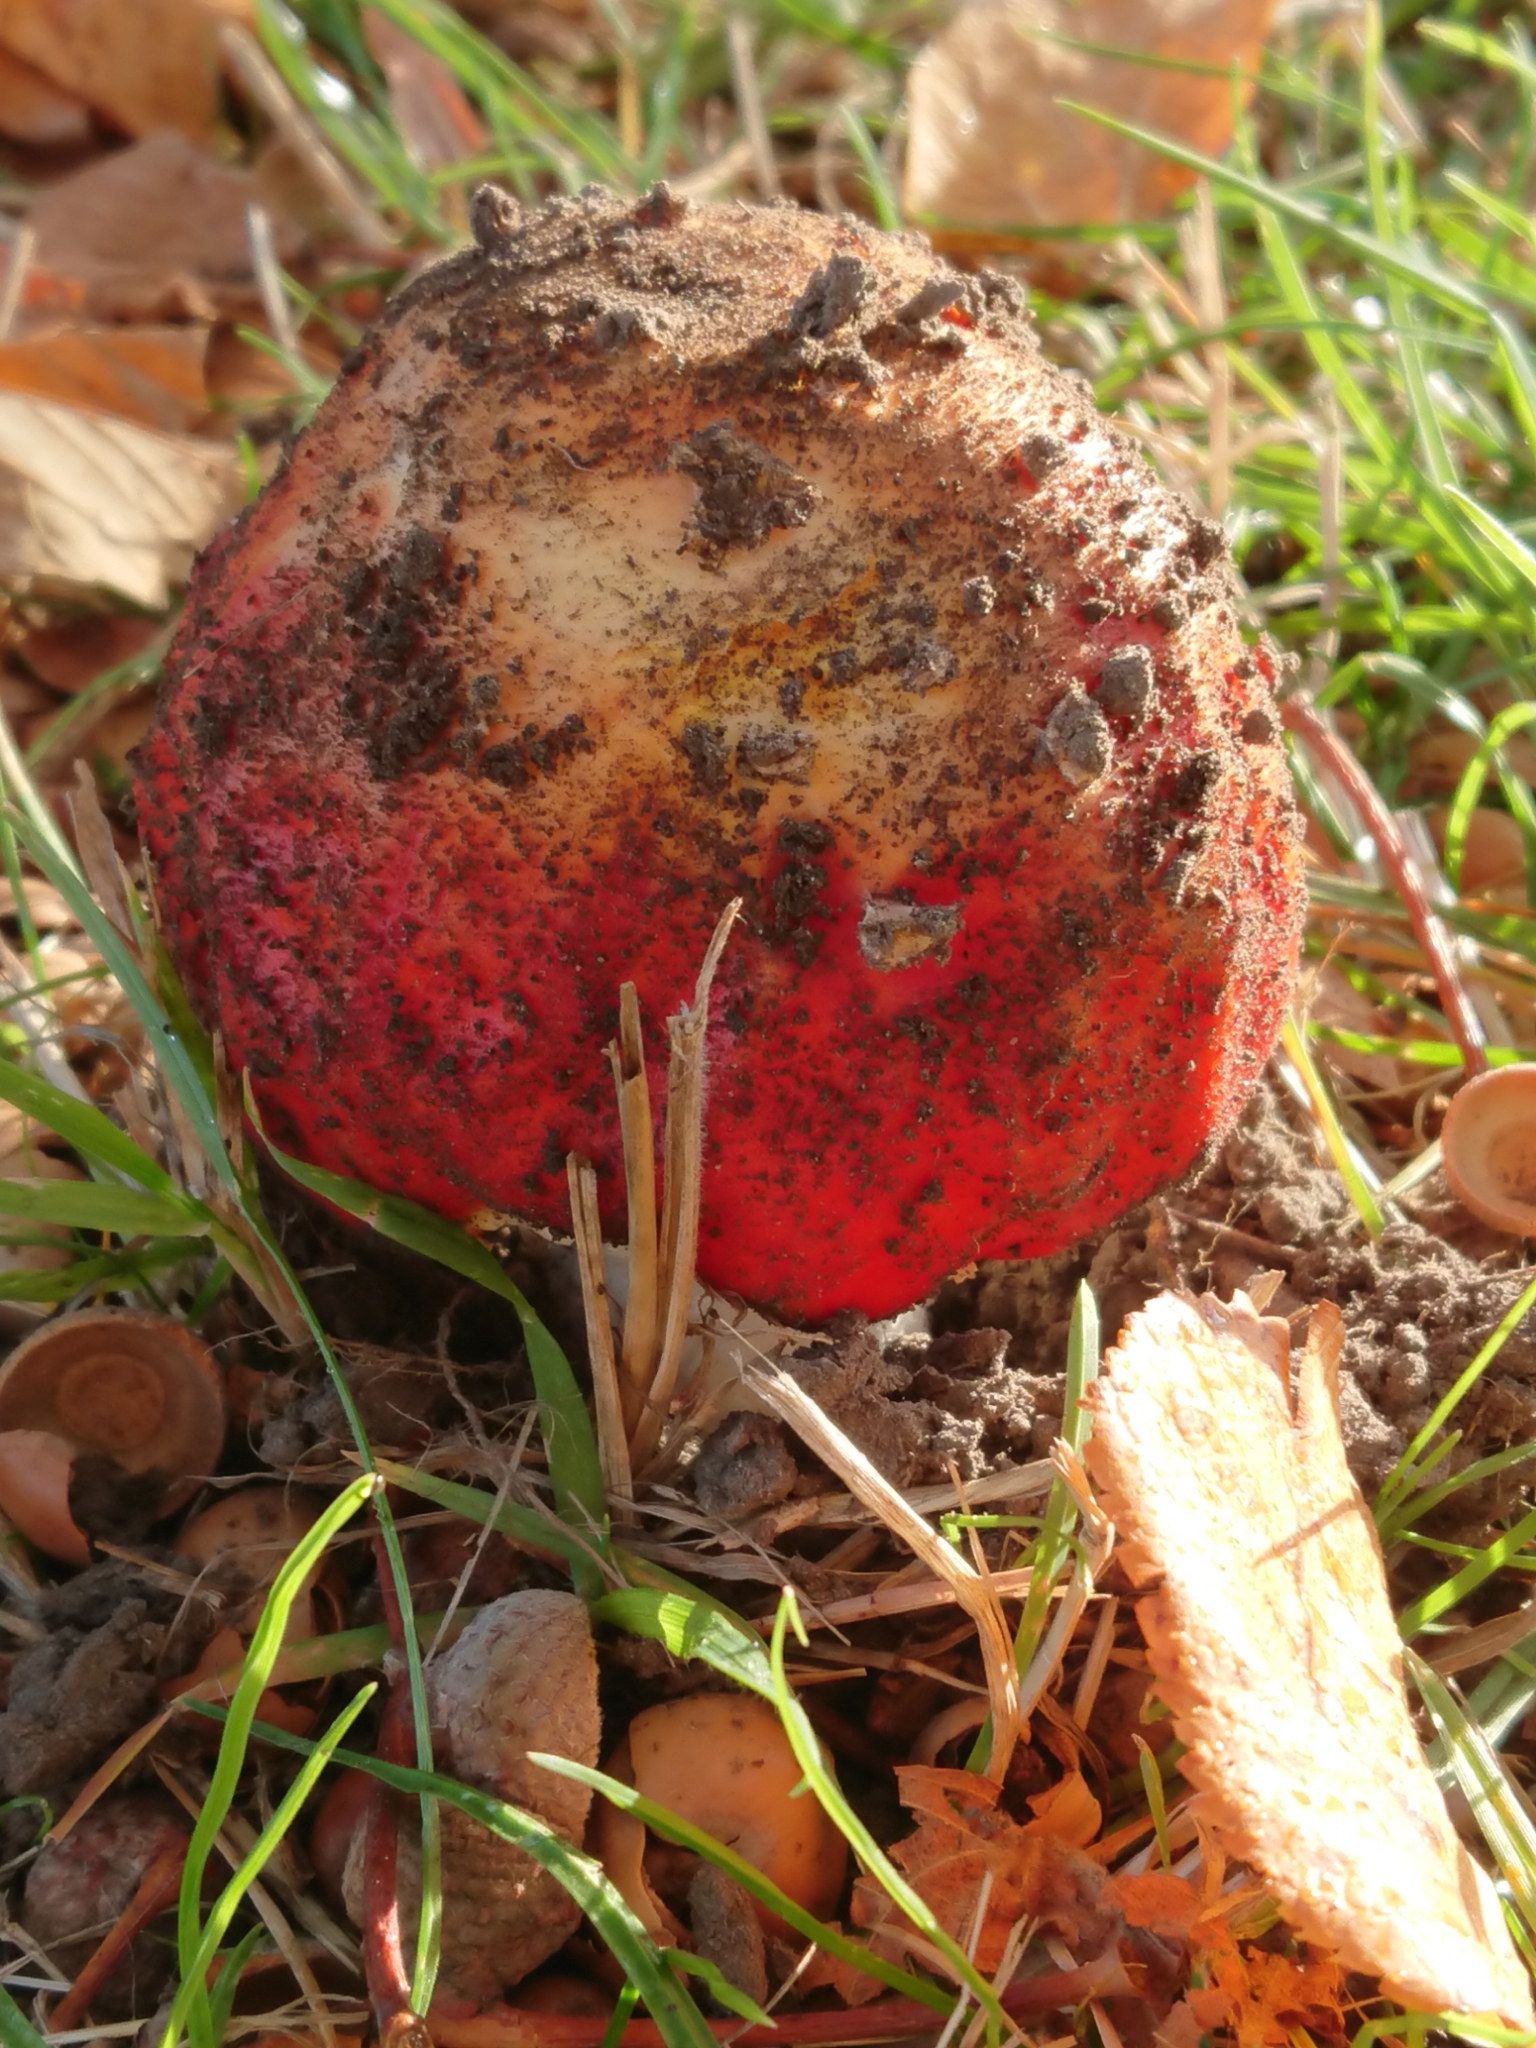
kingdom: Fungi
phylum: Basidiomycota
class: Agaricomycetes
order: Agaricales
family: Amanitaceae
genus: Amanita
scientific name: Amanita muscaria
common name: Fly agaric
